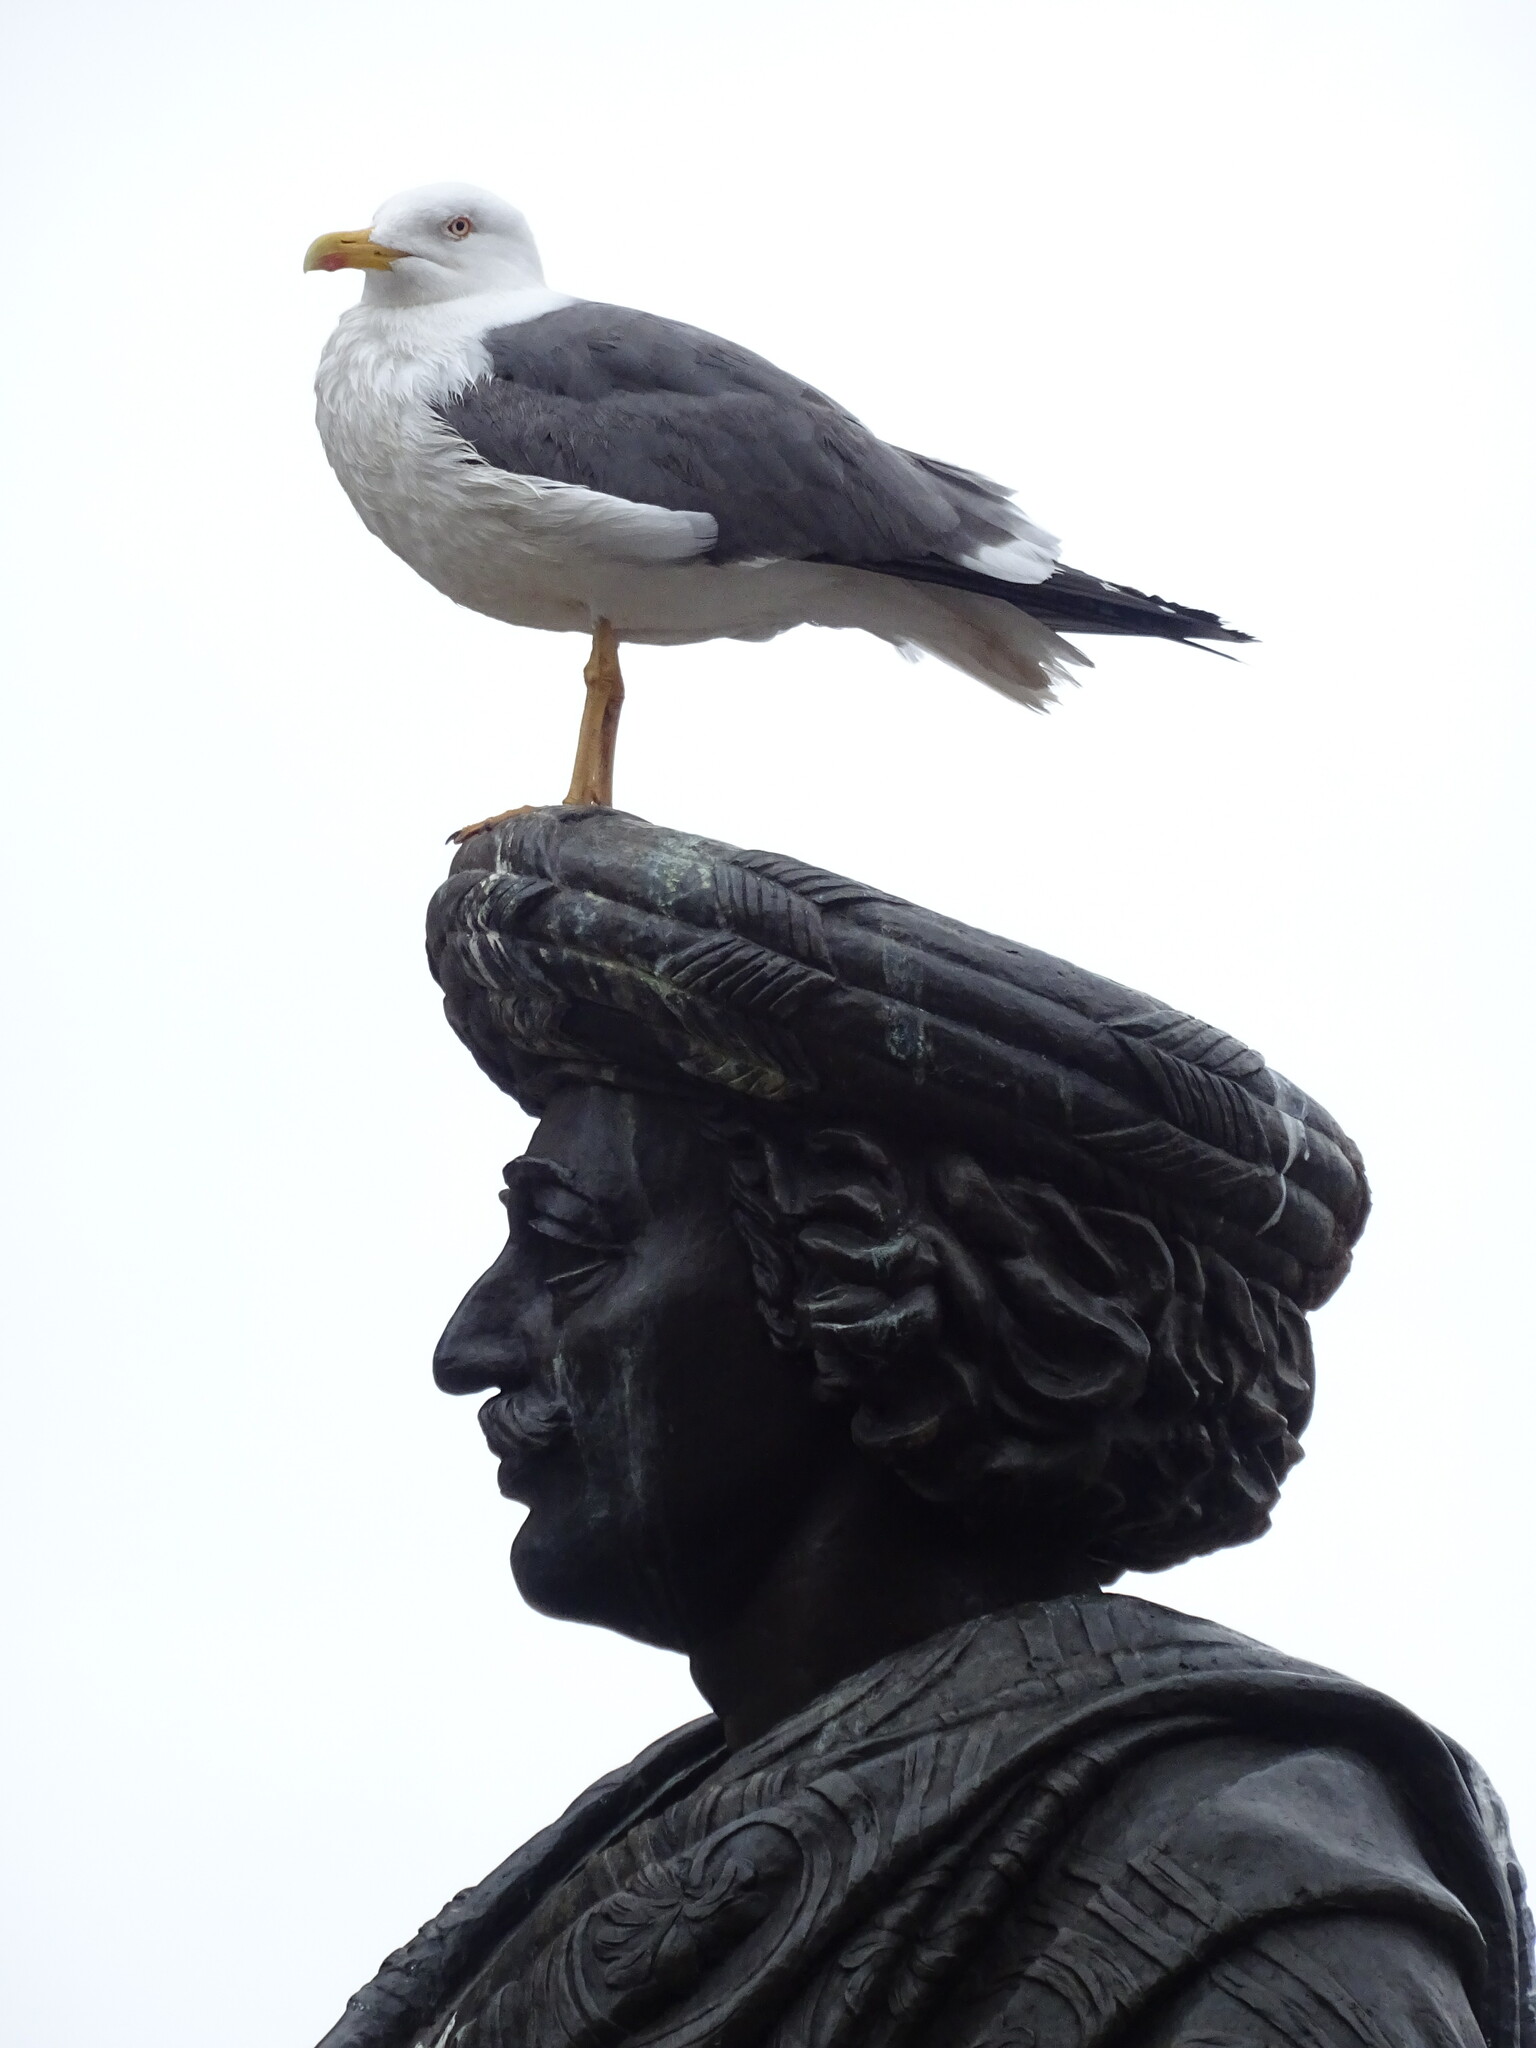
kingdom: Animalia
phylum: Chordata
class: Aves
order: Charadriiformes
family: Laridae
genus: Larus
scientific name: Larus fuscus
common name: Lesser black-backed gull
